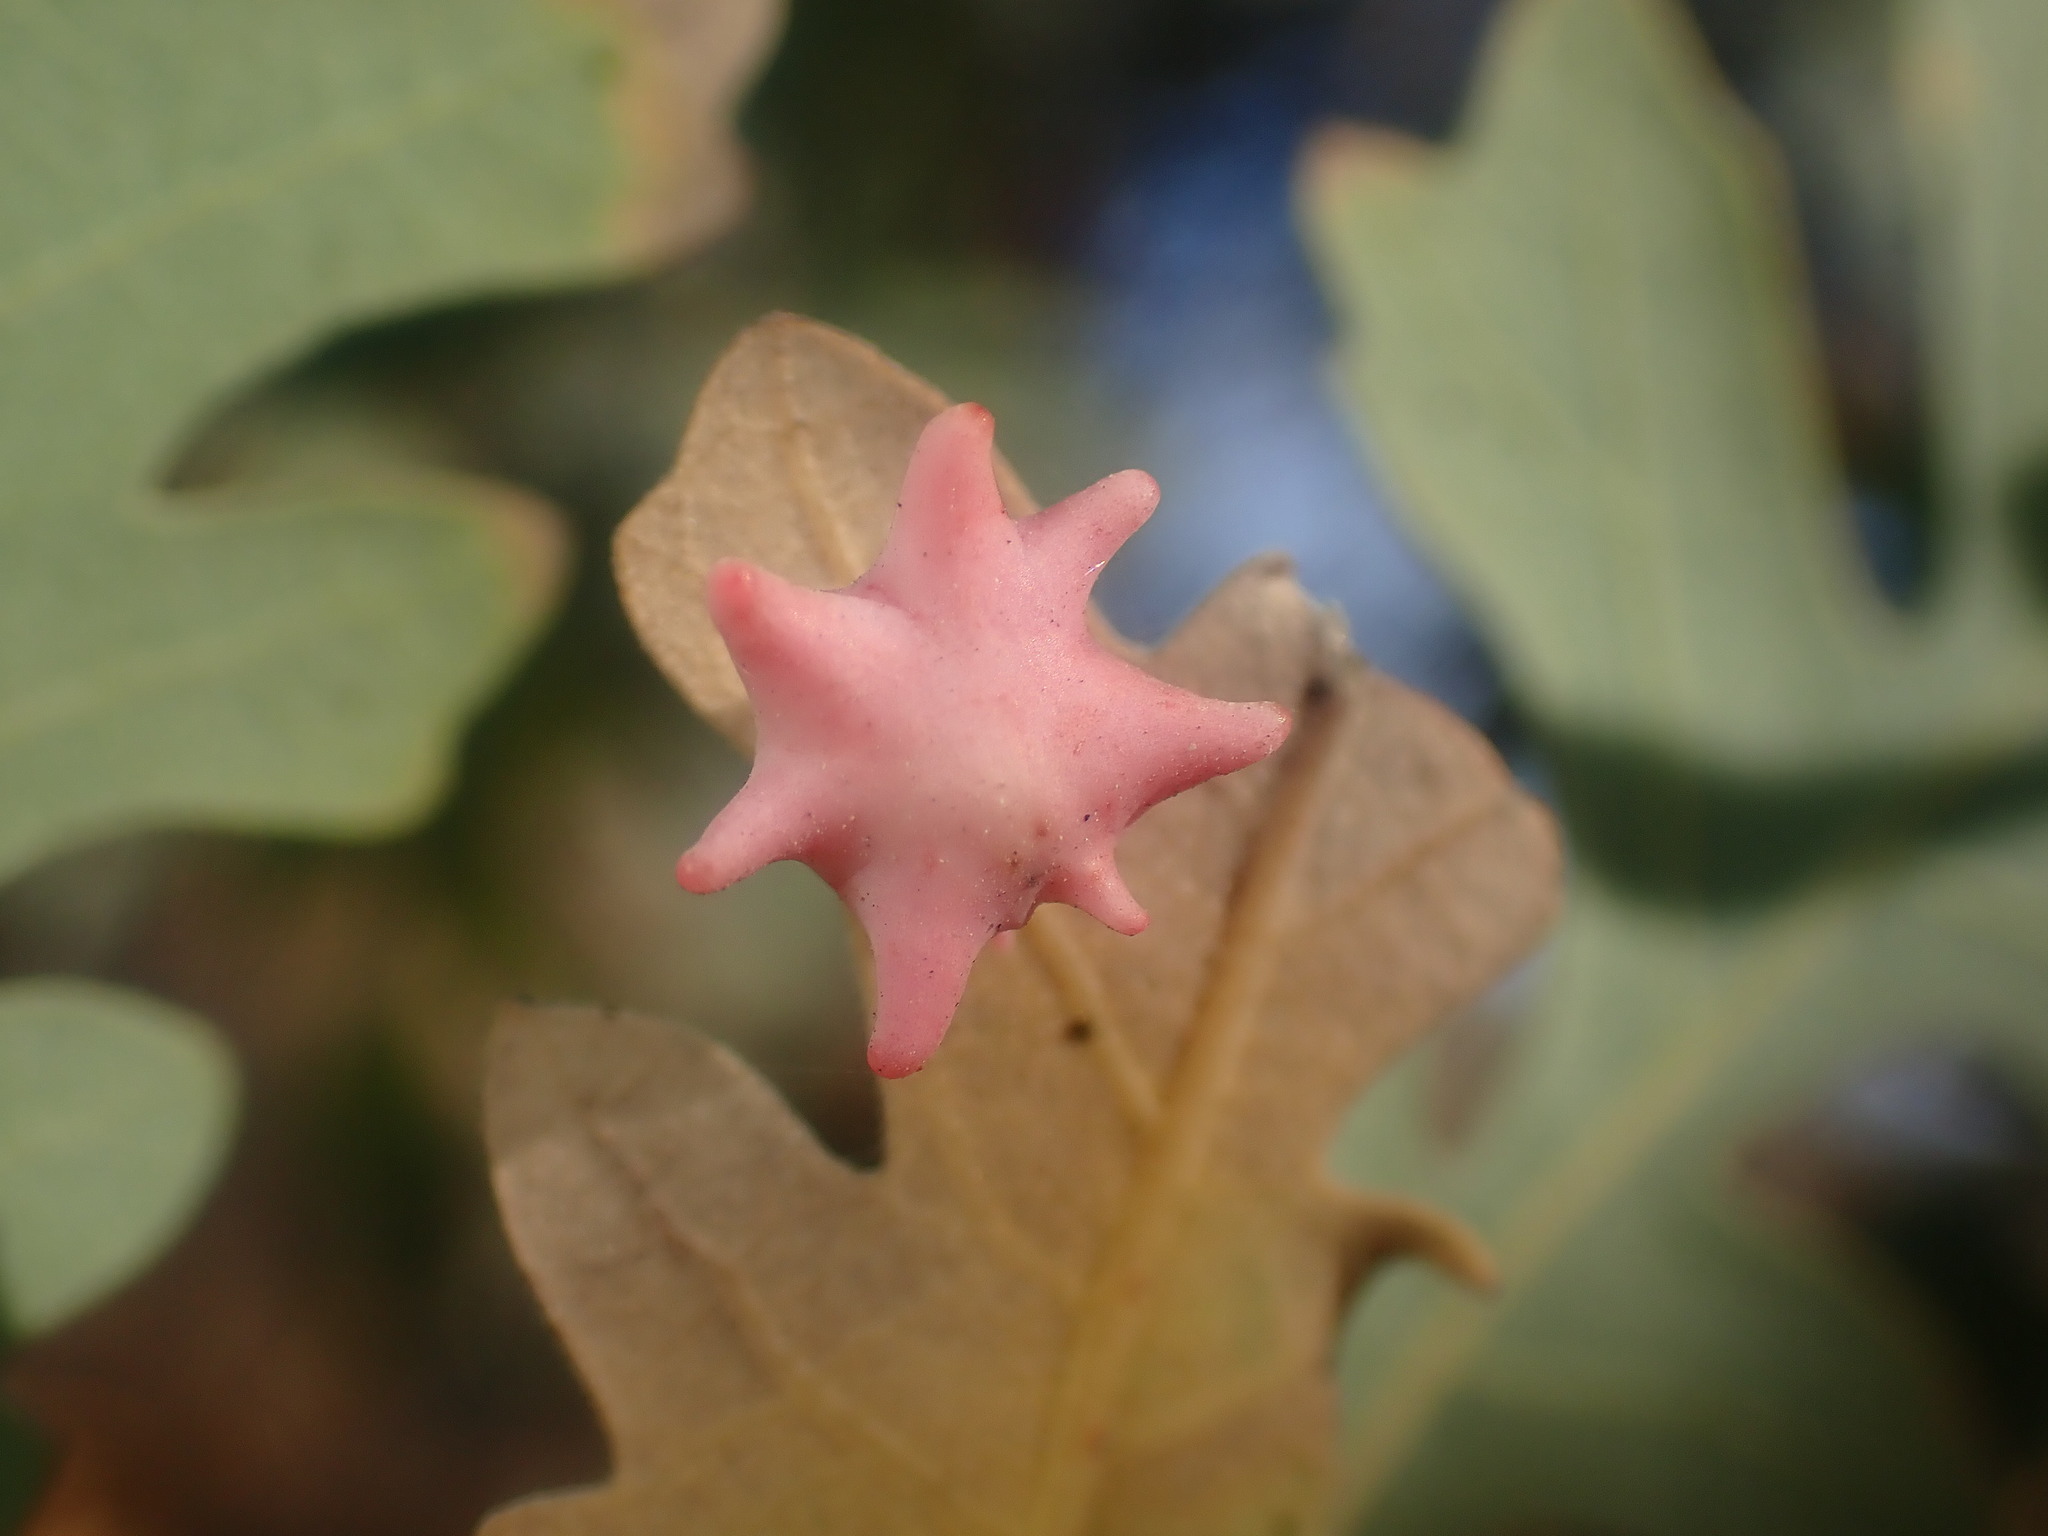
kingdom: Animalia
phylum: Arthropoda
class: Insecta
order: Hymenoptera
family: Cynipidae
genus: Cynips
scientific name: Cynips douglasi
